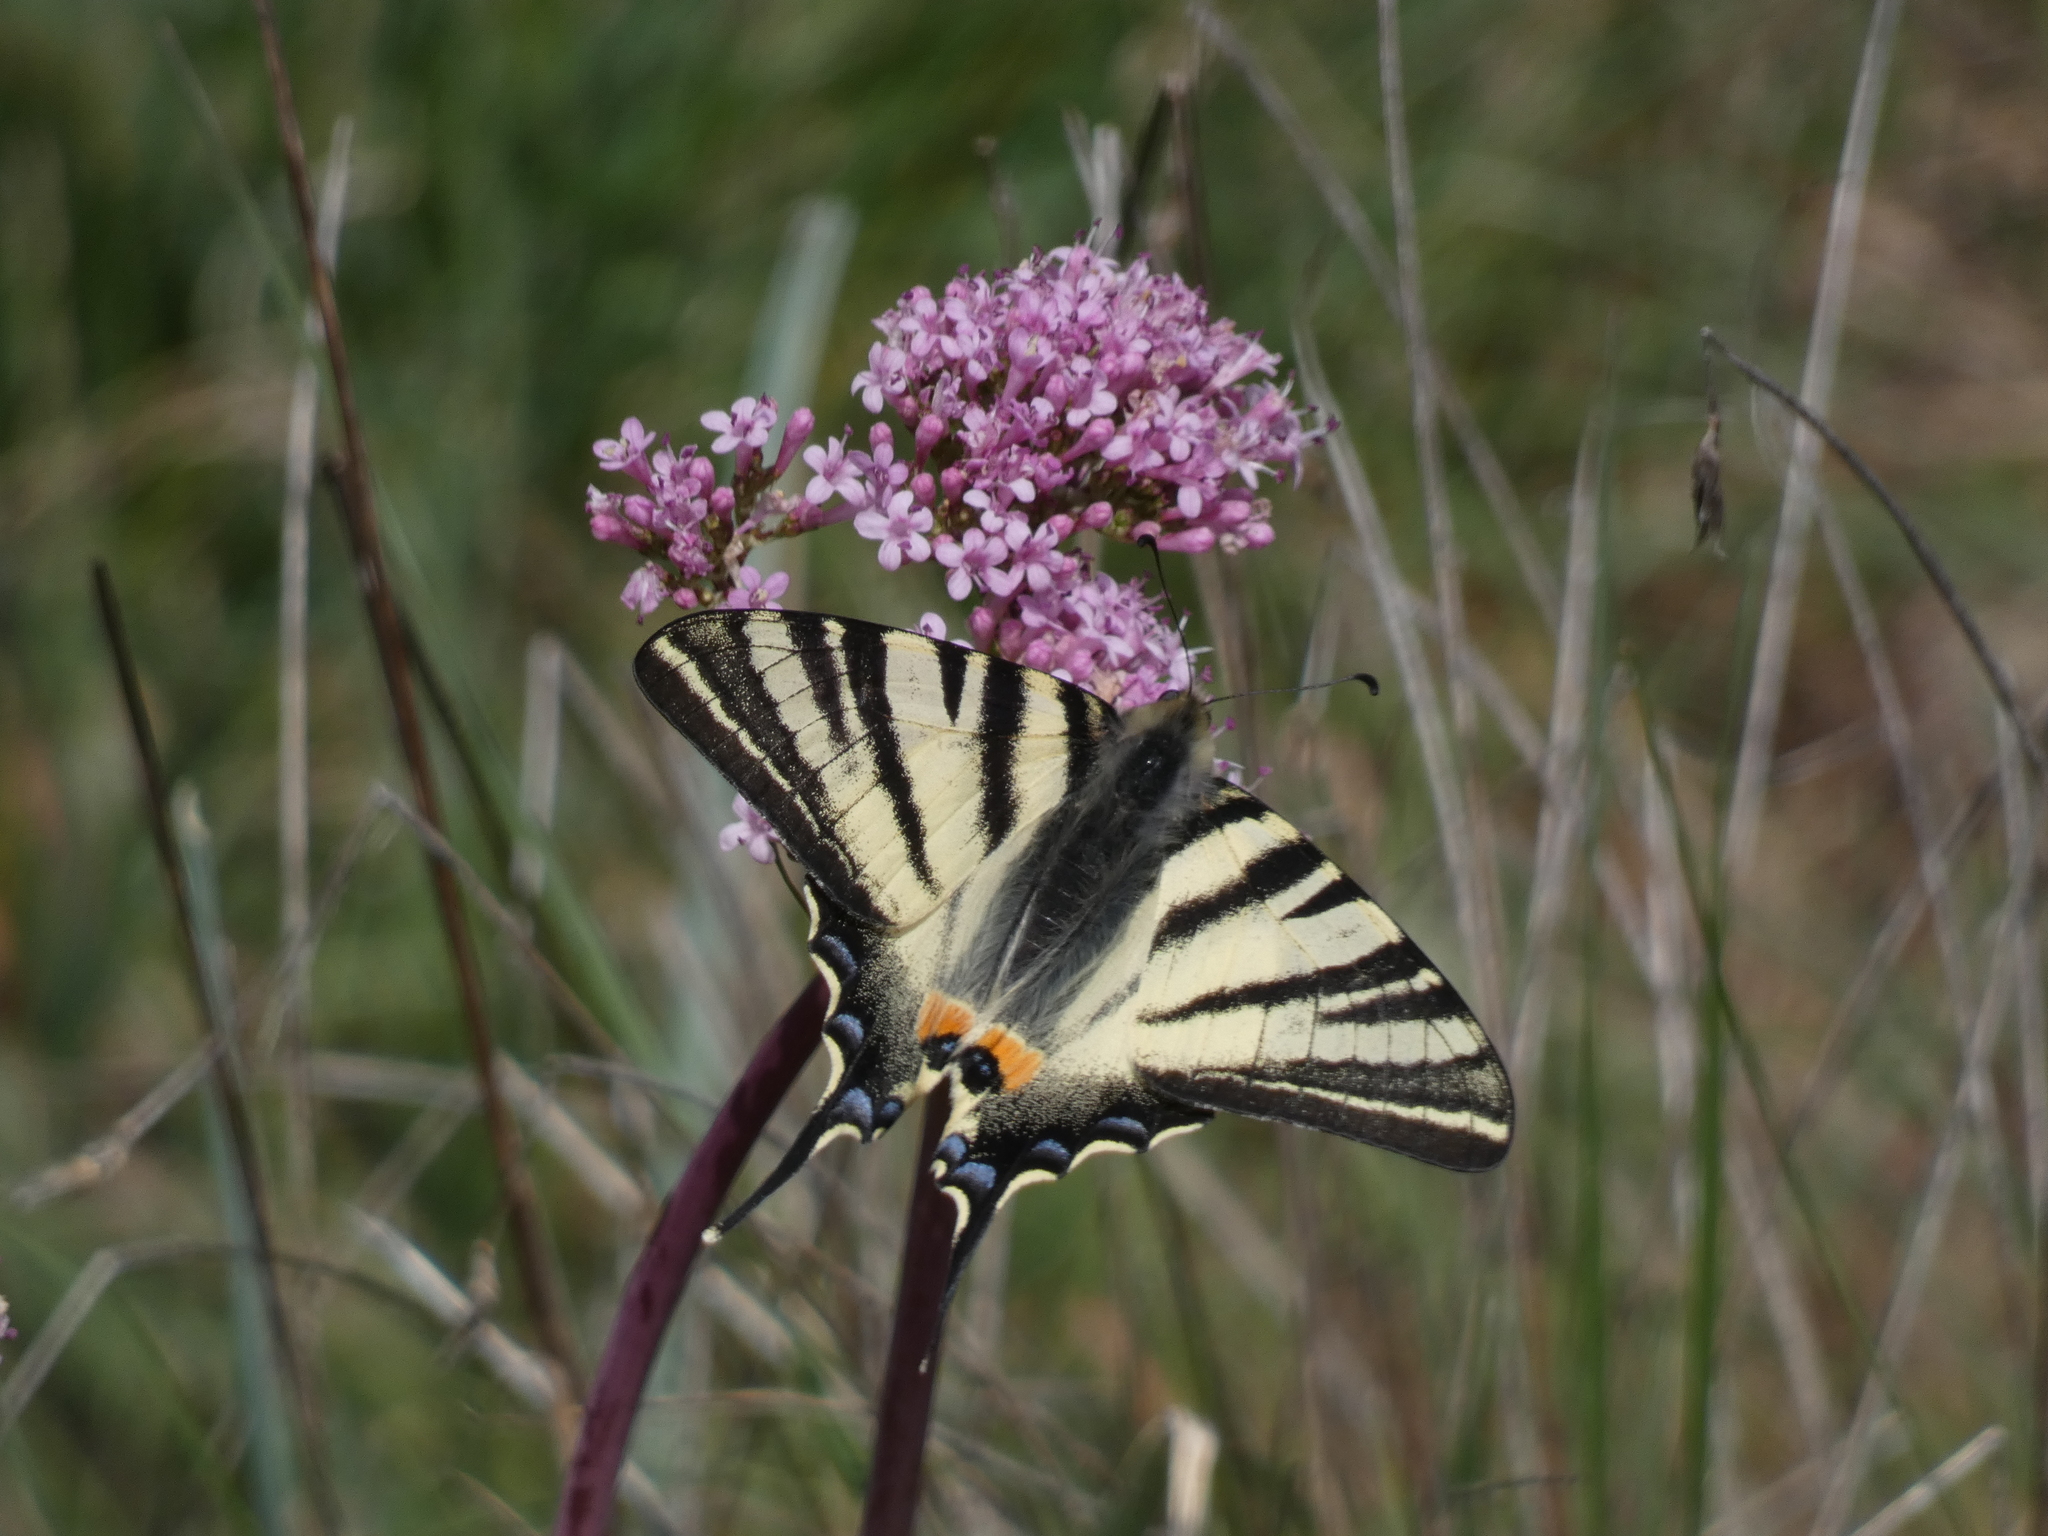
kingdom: Animalia
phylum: Arthropoda
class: Insecta
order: Lepidoptera
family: Papilionidae
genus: Iphiclides
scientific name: Iphiclides podalirius
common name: Scarce swallowtail
